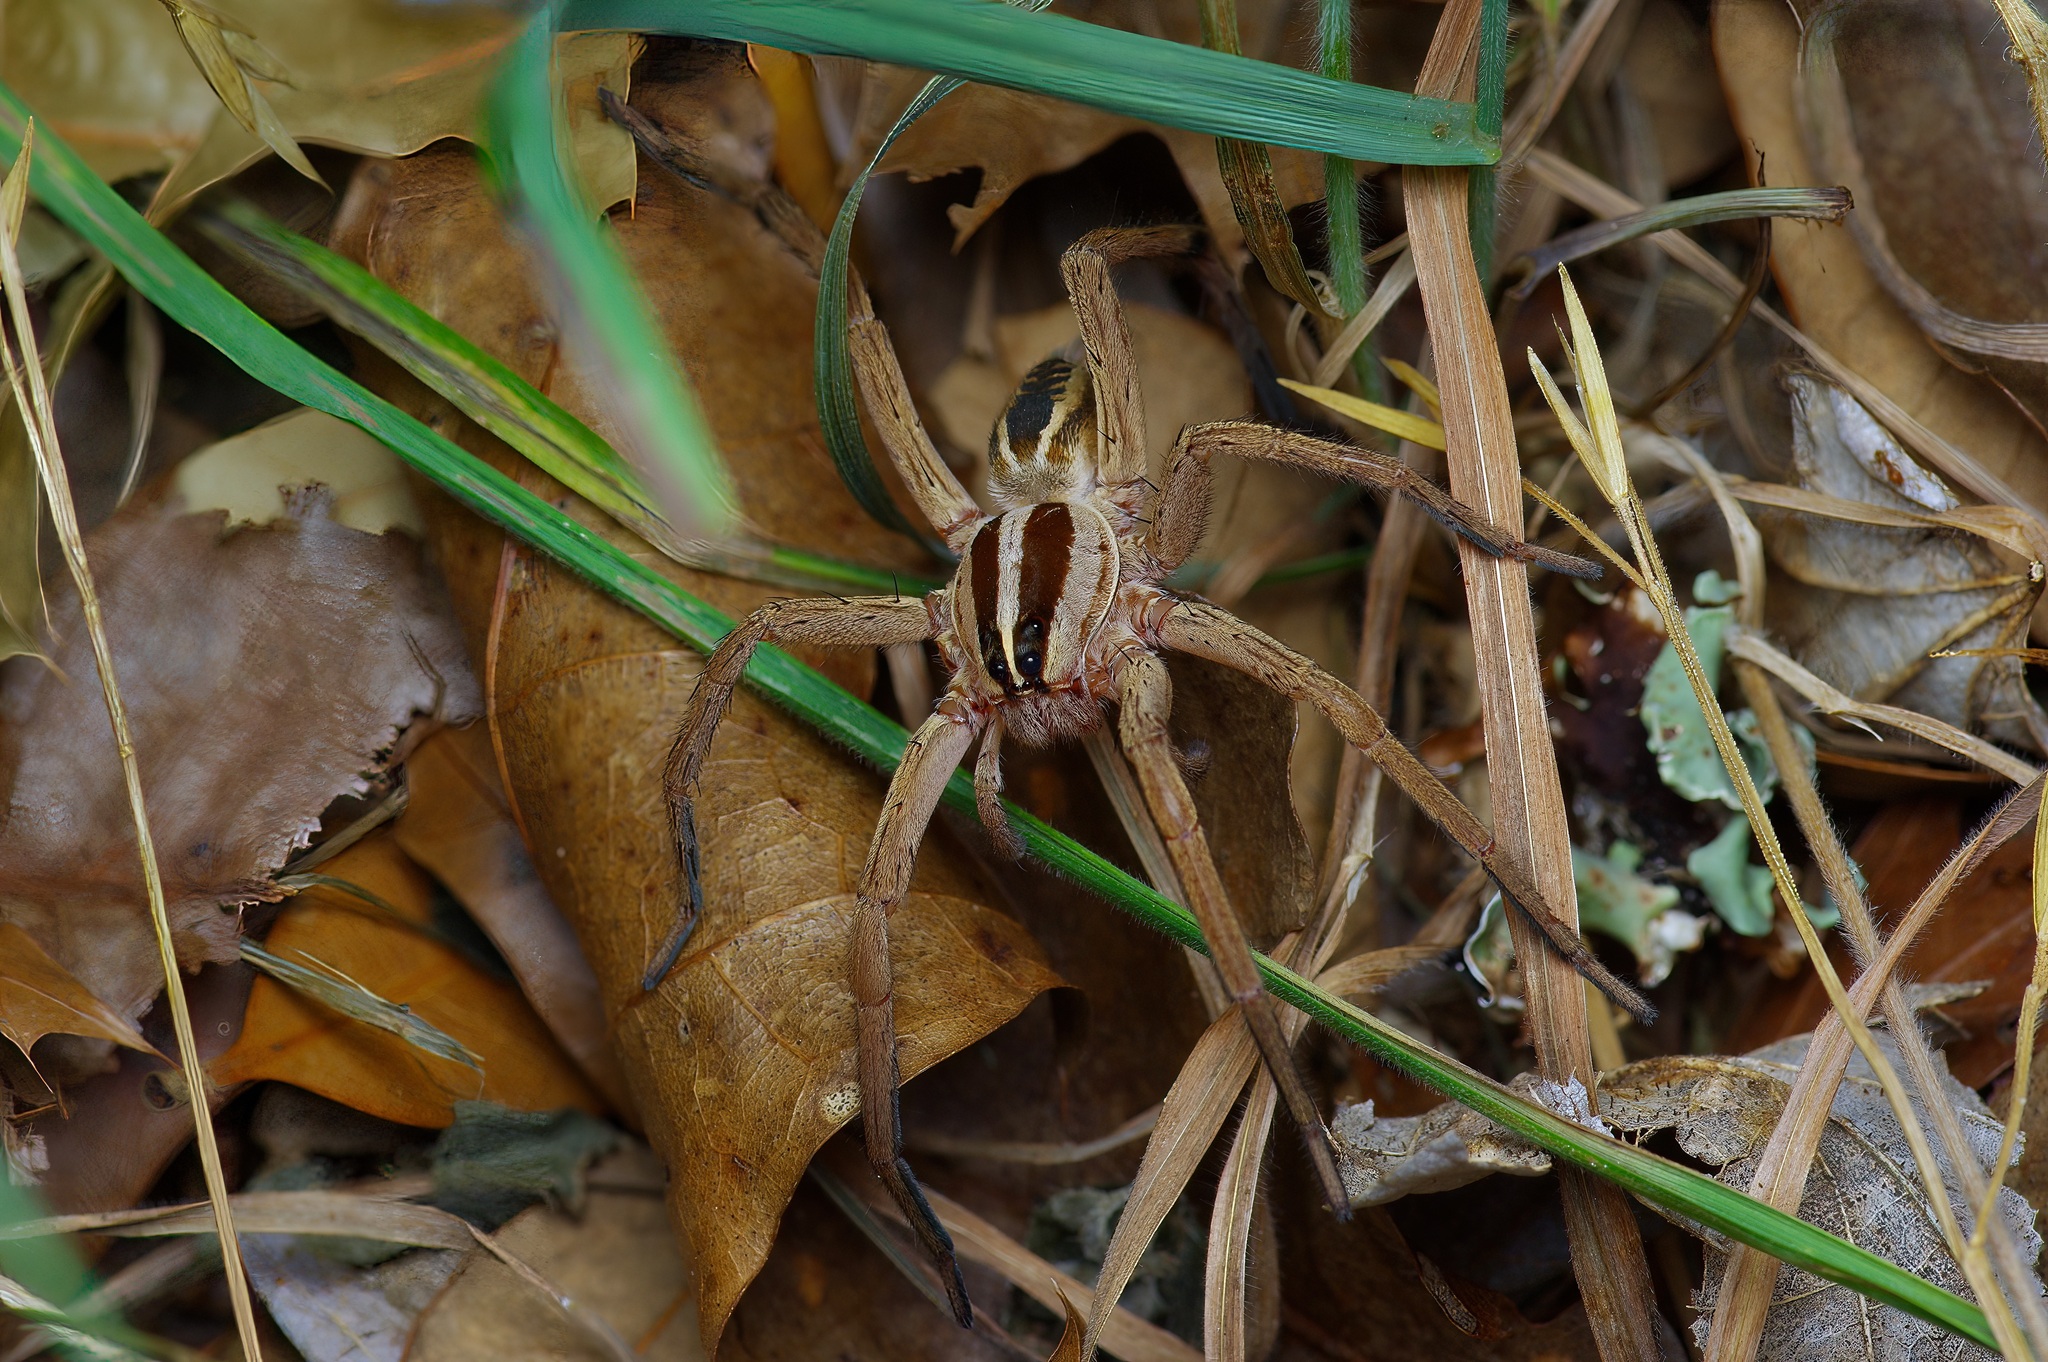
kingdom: Animalia
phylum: Arthropoda
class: Arachnida
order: Araneae
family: Lycosidae
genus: Rabidosa
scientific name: Rabidosa rabida
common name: Rabid wolf spider
